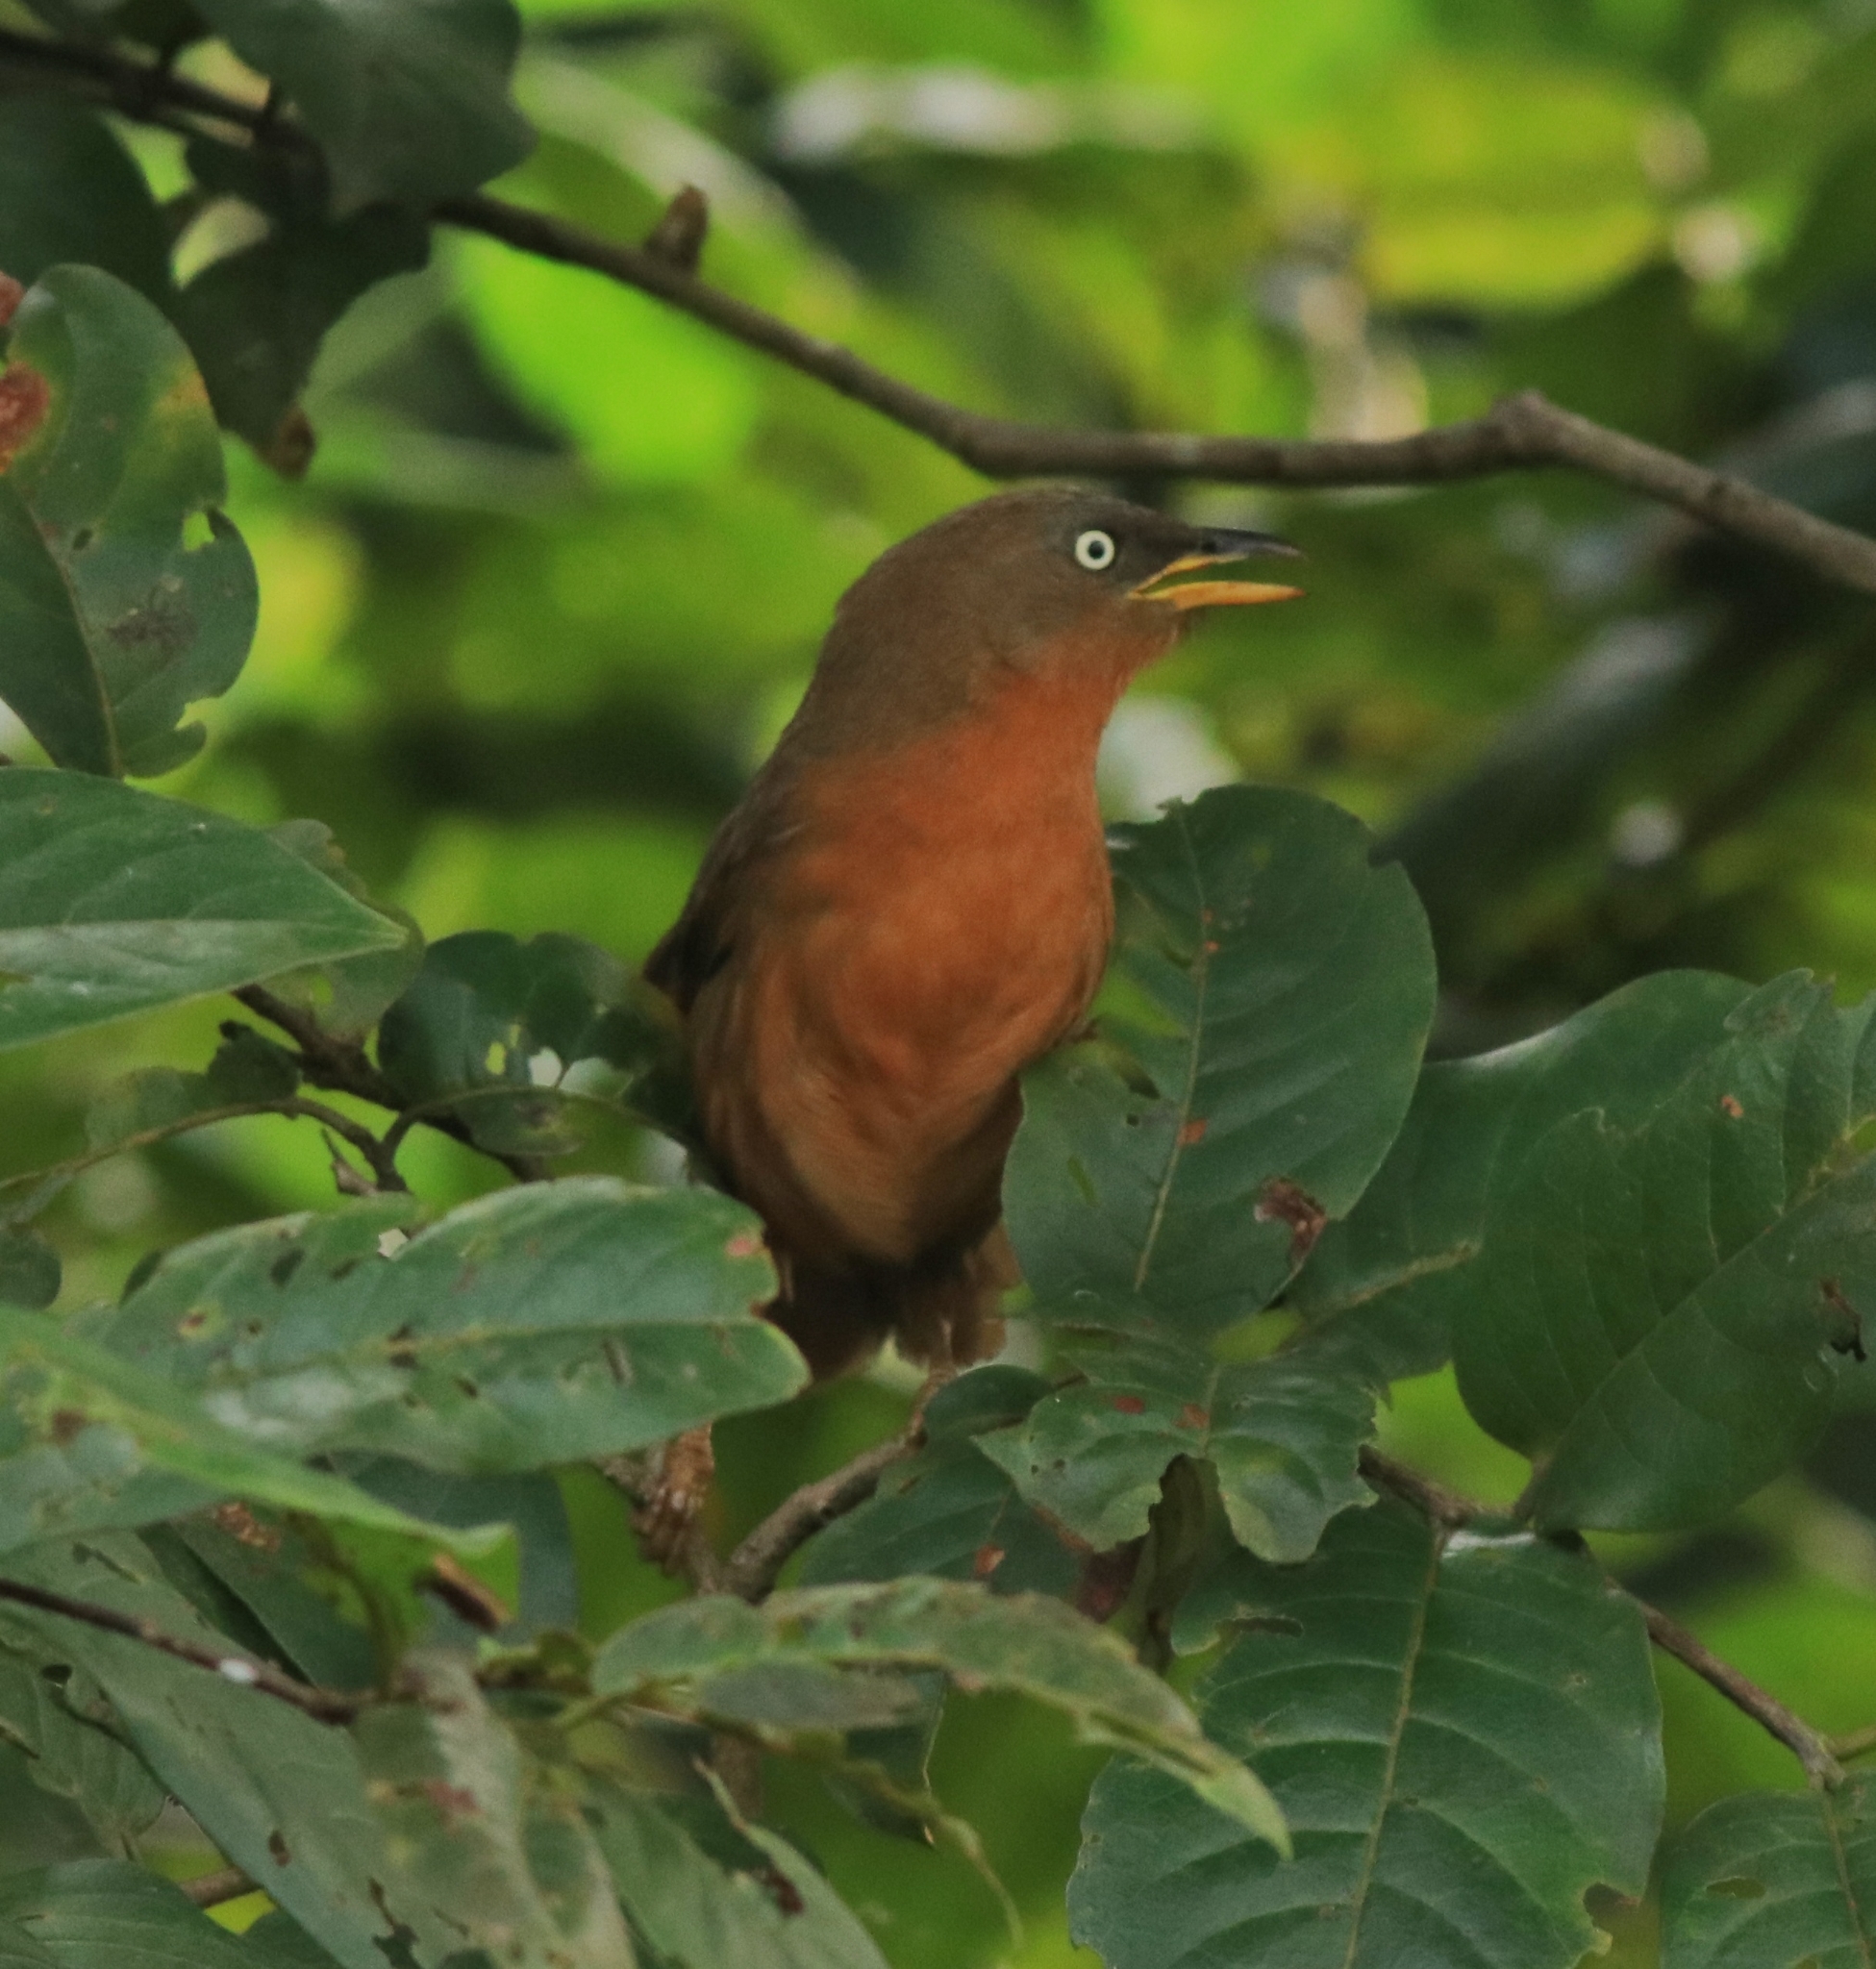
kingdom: Animalia
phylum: Chordata
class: Aves
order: Passeriformes
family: Leiothrichidae
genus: Turdoides
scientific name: Turdoides subrufa
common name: Rufous babbler
